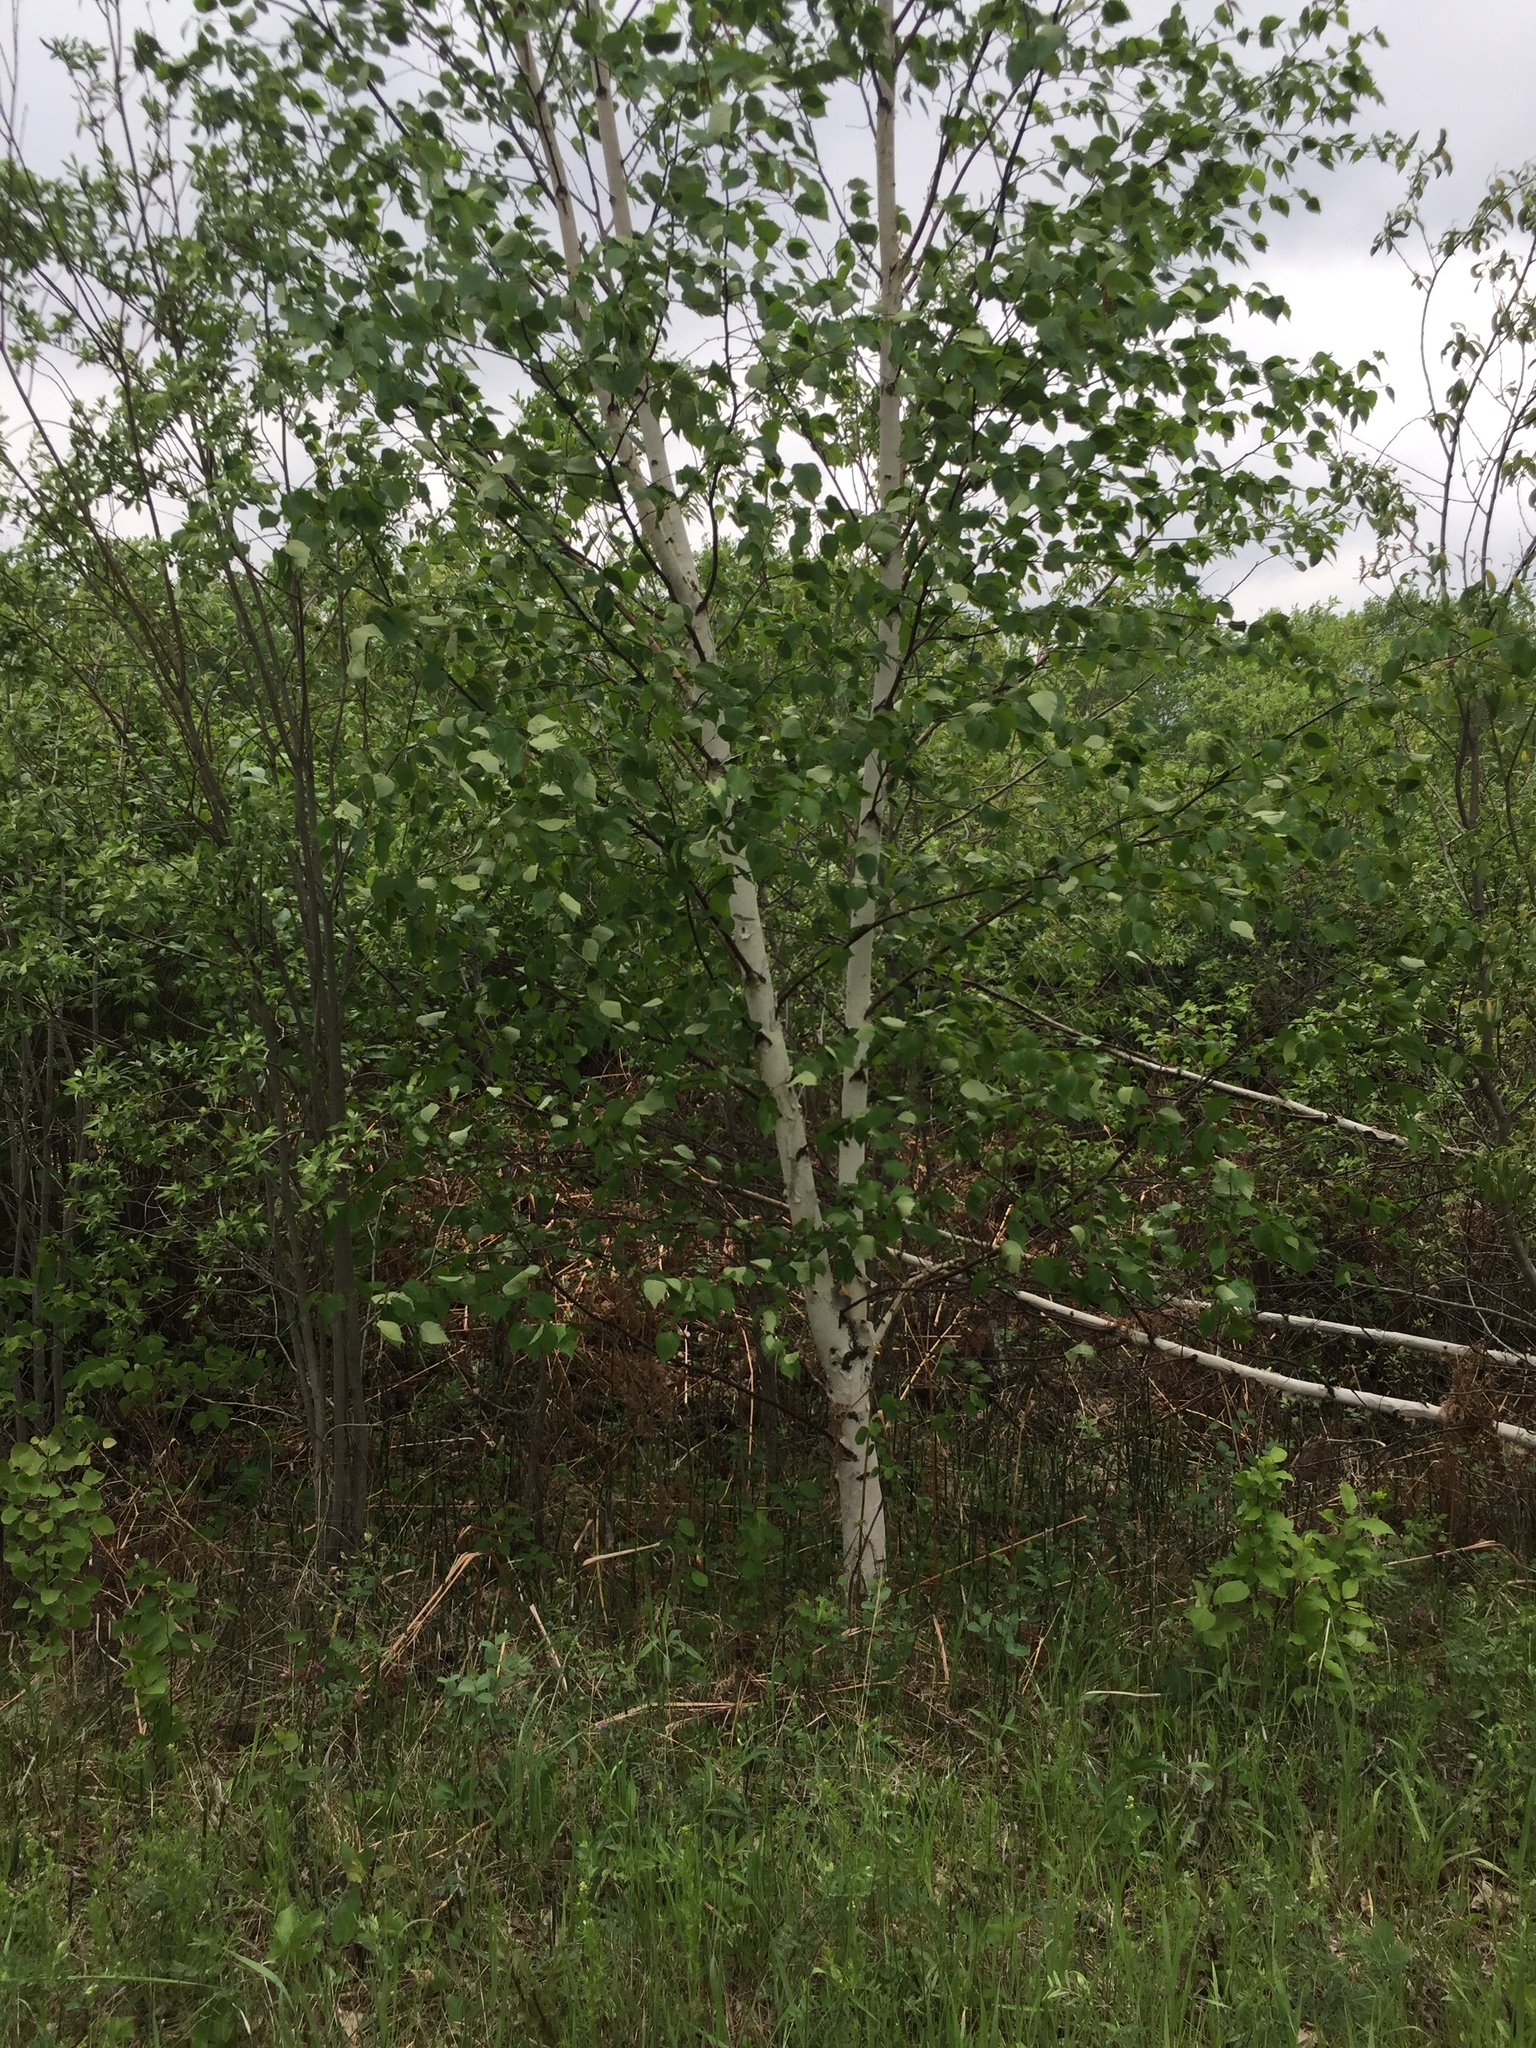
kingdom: Plantae
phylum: Tracheophyta
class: Magnoliopsida
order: Fagales
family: Betulaceae
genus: Betula
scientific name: Betula papyrifera
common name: Paper birch
